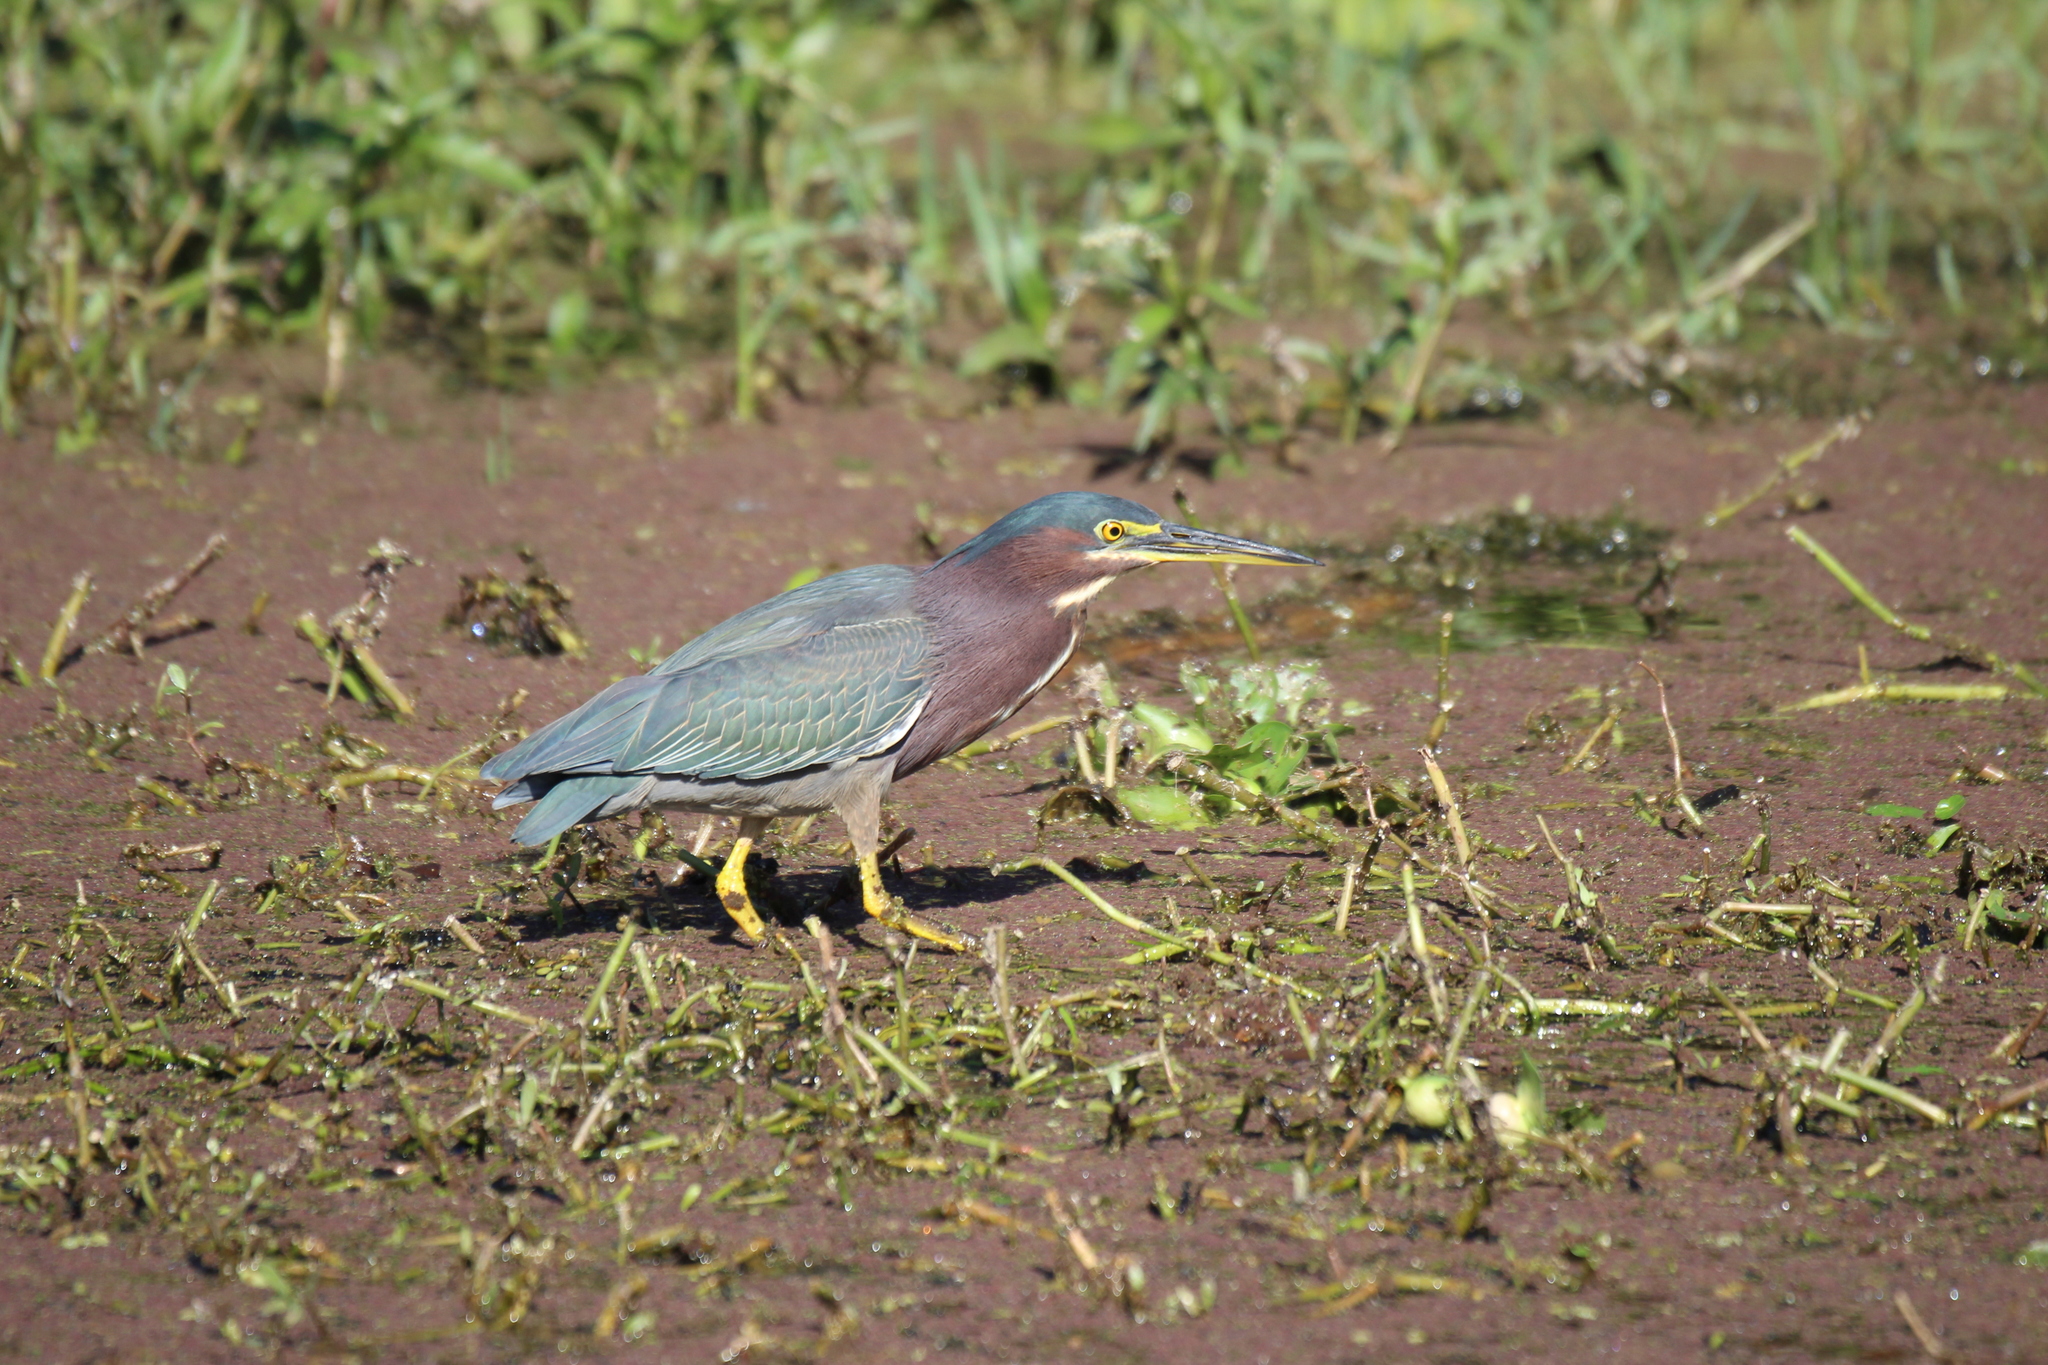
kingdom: Animalia
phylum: Chordata
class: Aves
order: Pelecaniformes
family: Ardeidae
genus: Butorides
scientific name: Butorides virescens
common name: Green heron
